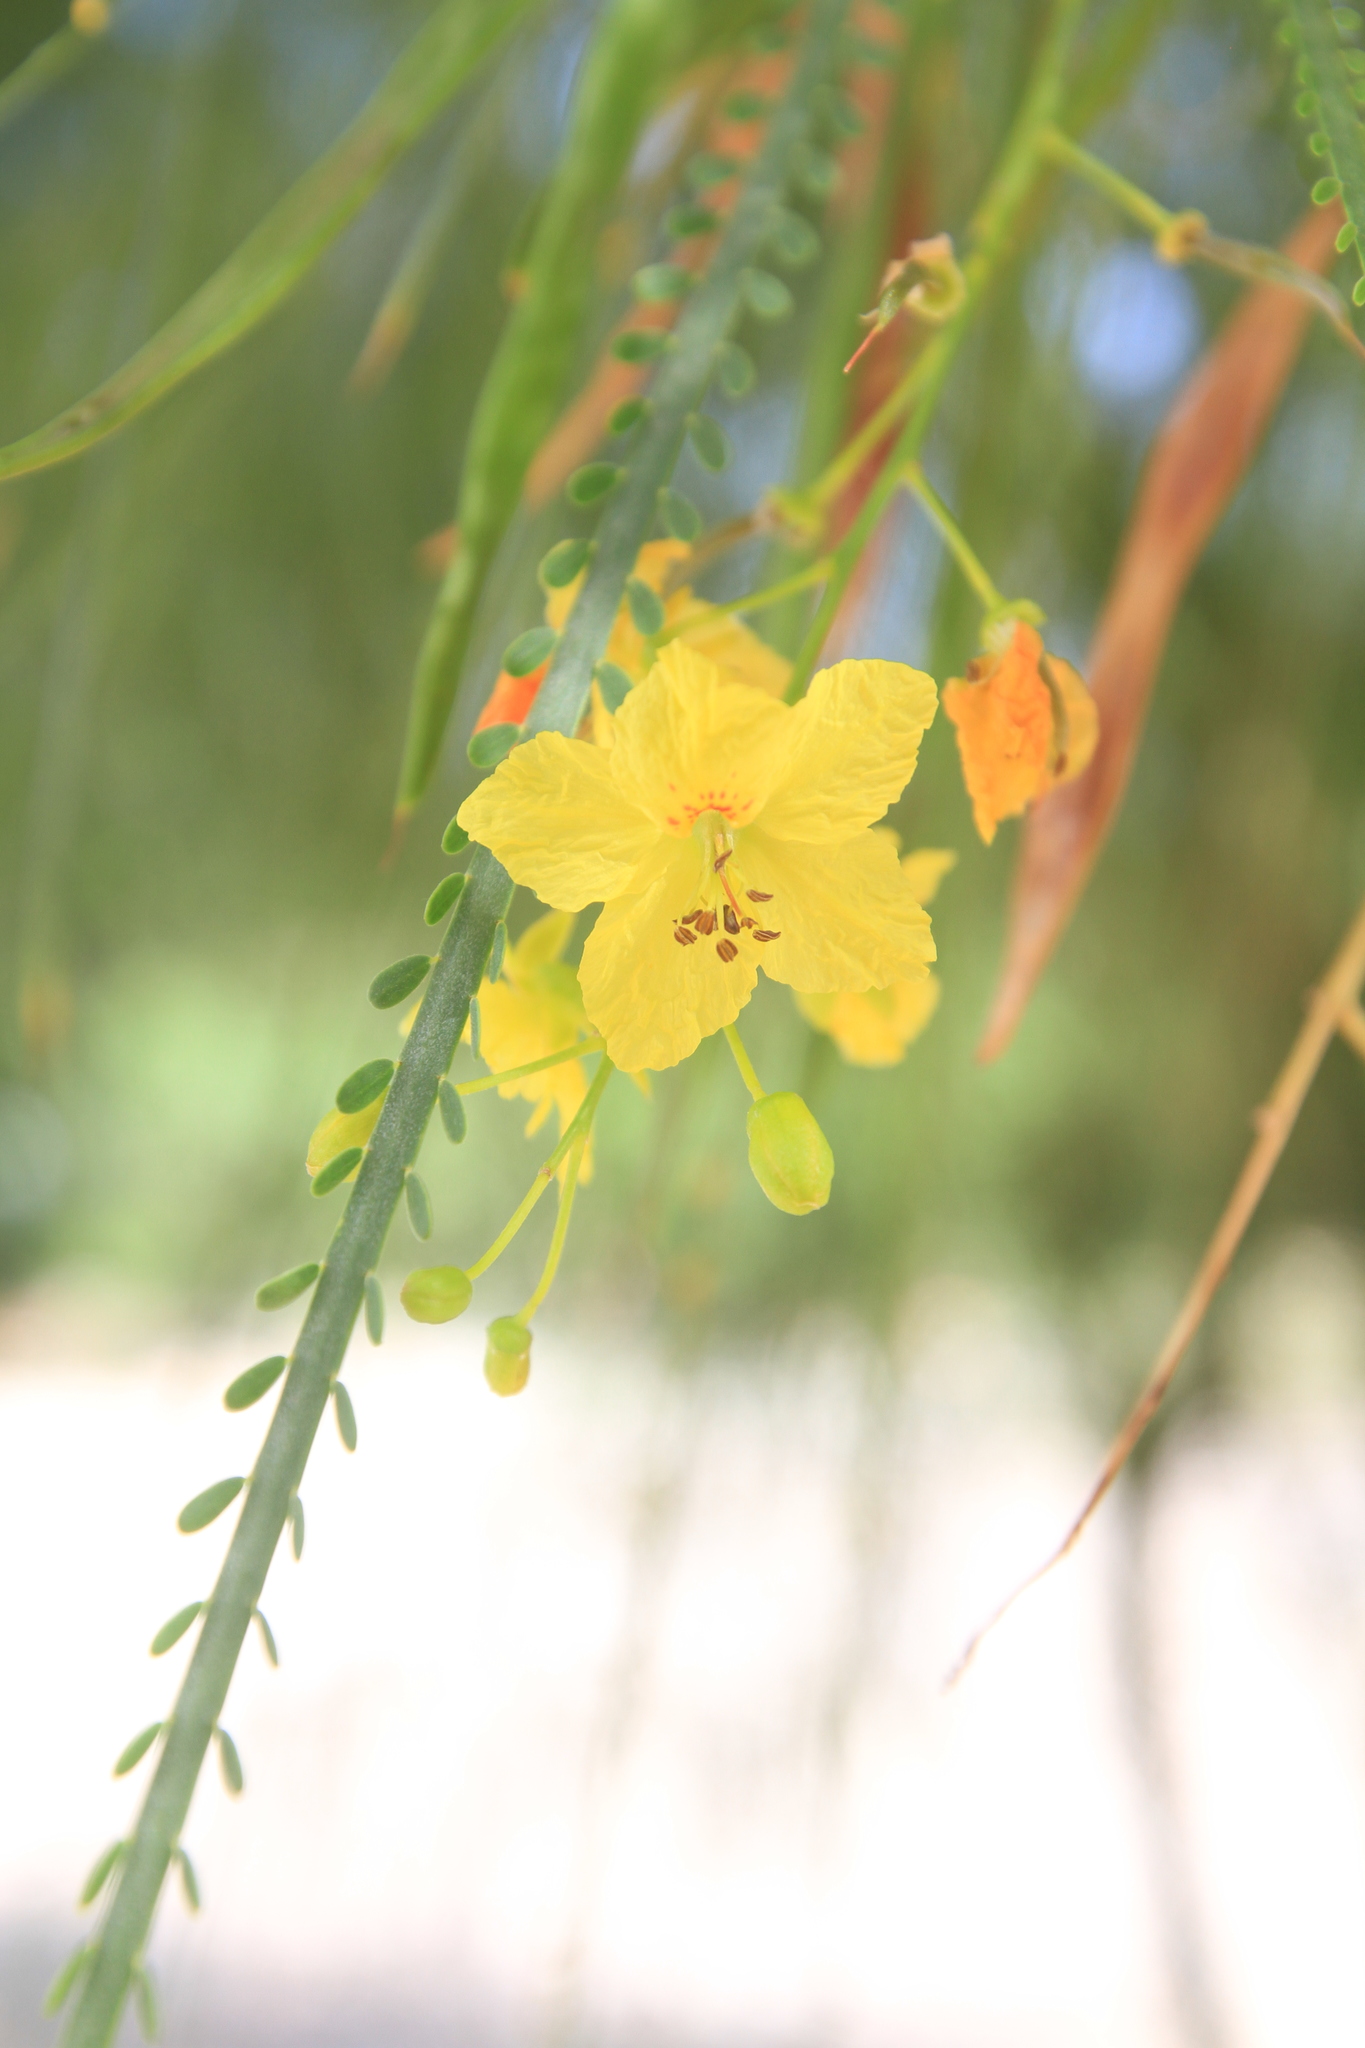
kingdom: Plantae
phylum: Tracheophyta
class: Magnoliopsida
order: Fabales
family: Fabaceae
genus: Parkinsonia
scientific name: Parkinsonia aculeata
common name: Jerusalem thorn
